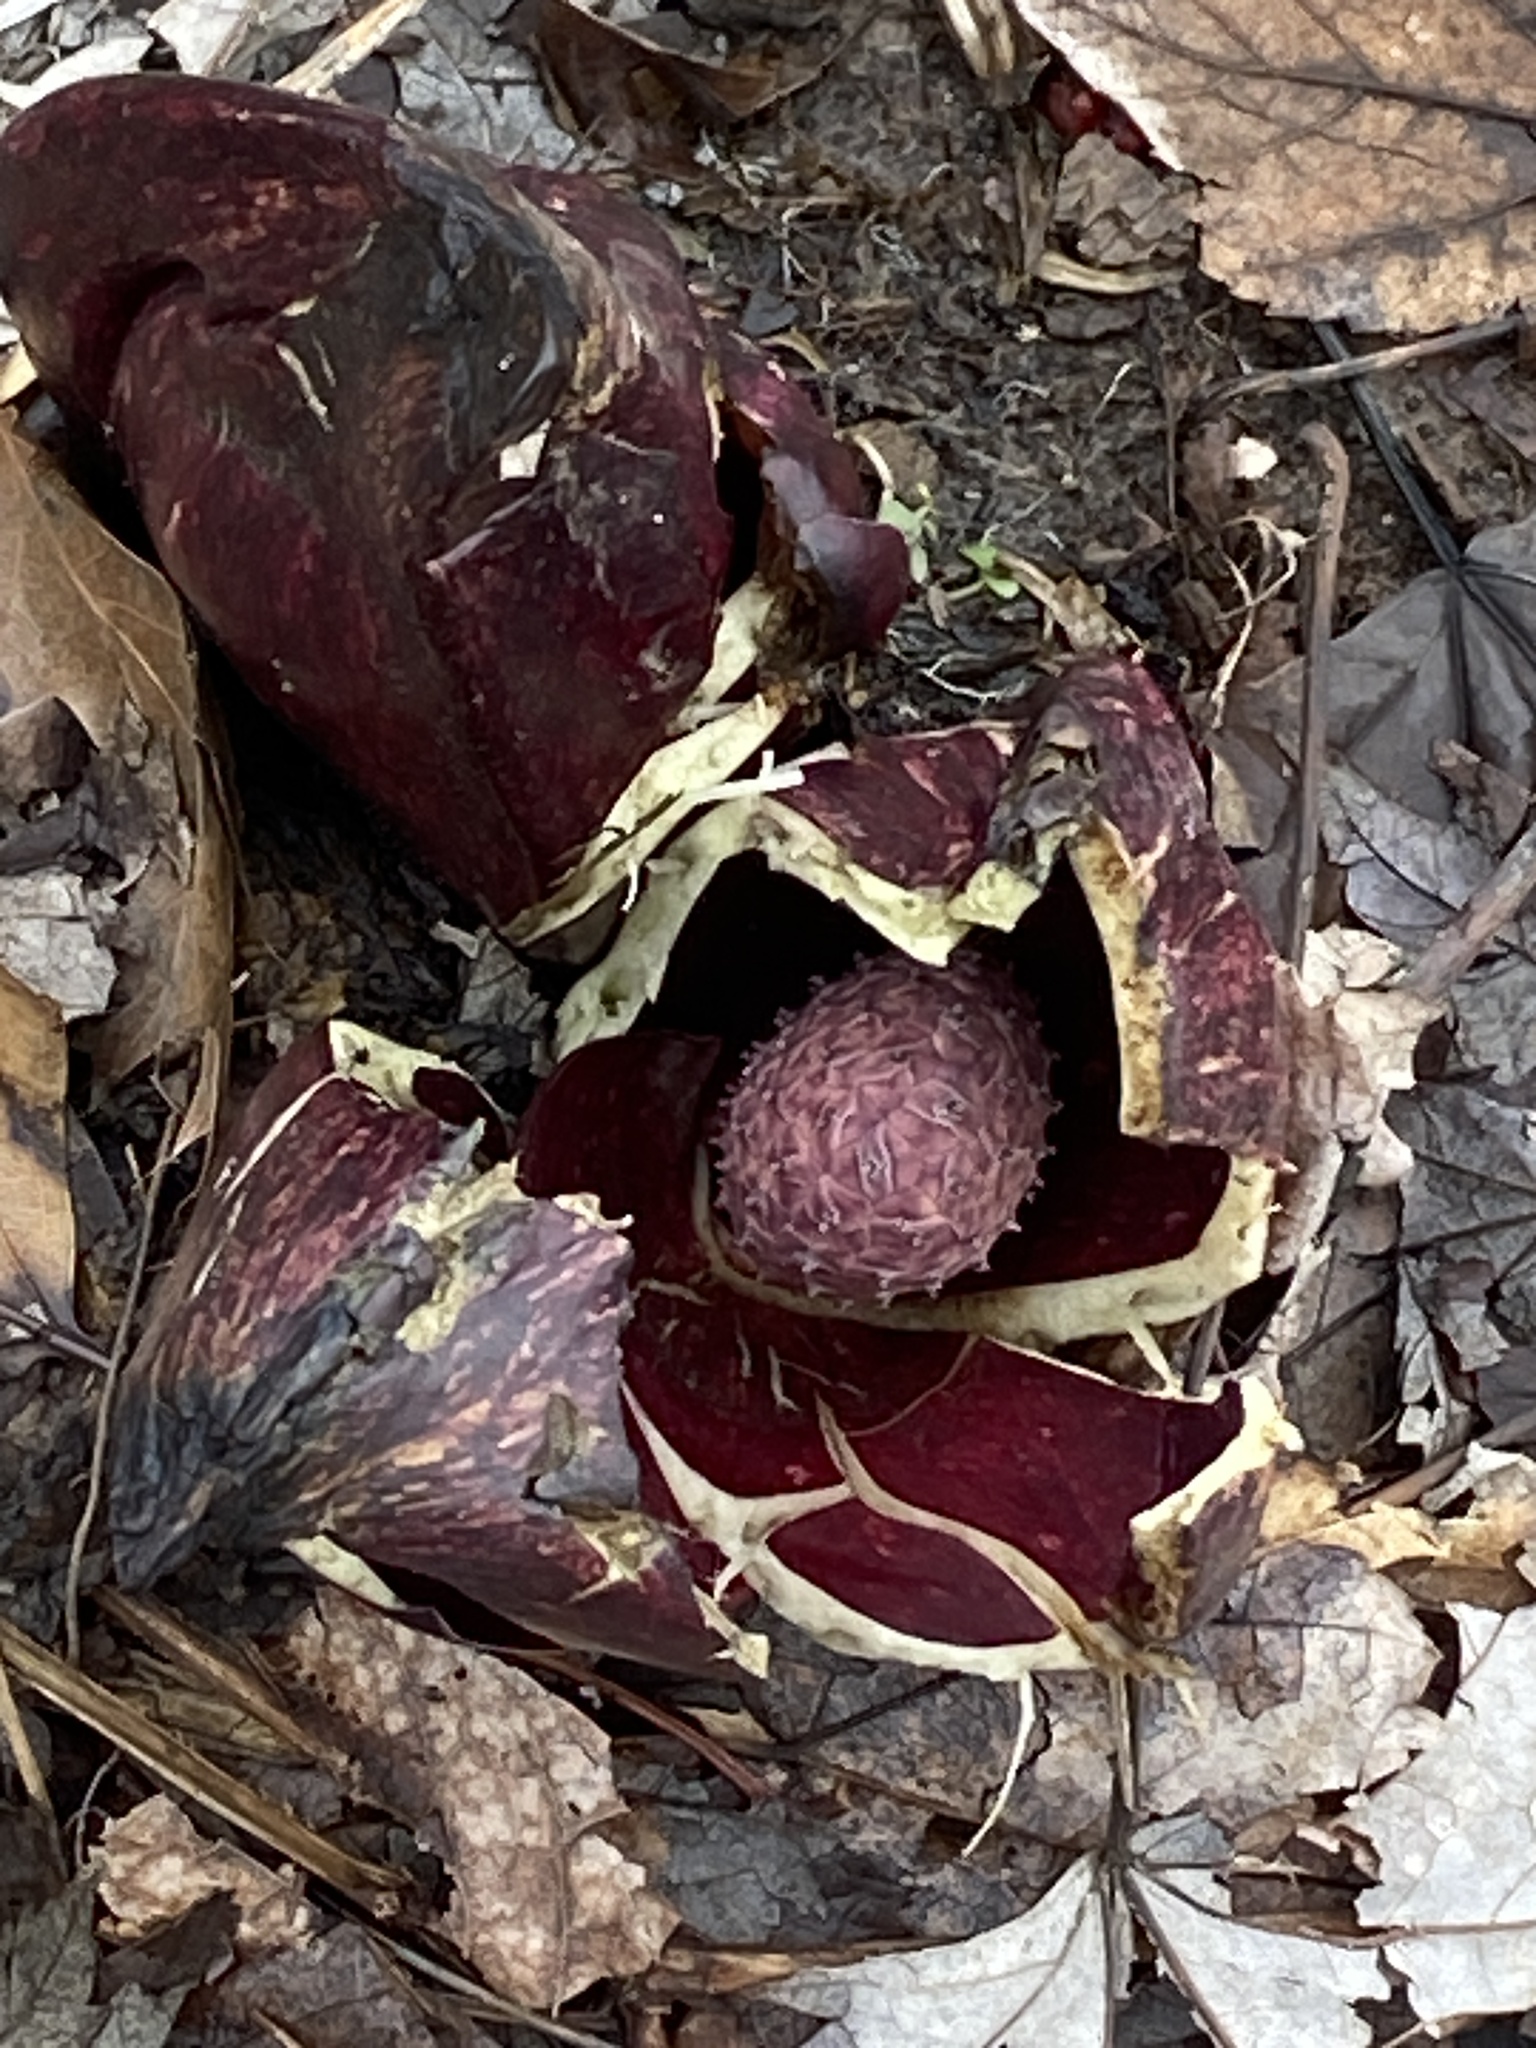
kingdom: Plantae
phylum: Tracheophyta
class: Liliopsida
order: Alismatales
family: Araceae
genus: Symplocarpus
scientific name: Symplocarpus foetidus
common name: Eastern skunk cabbage
